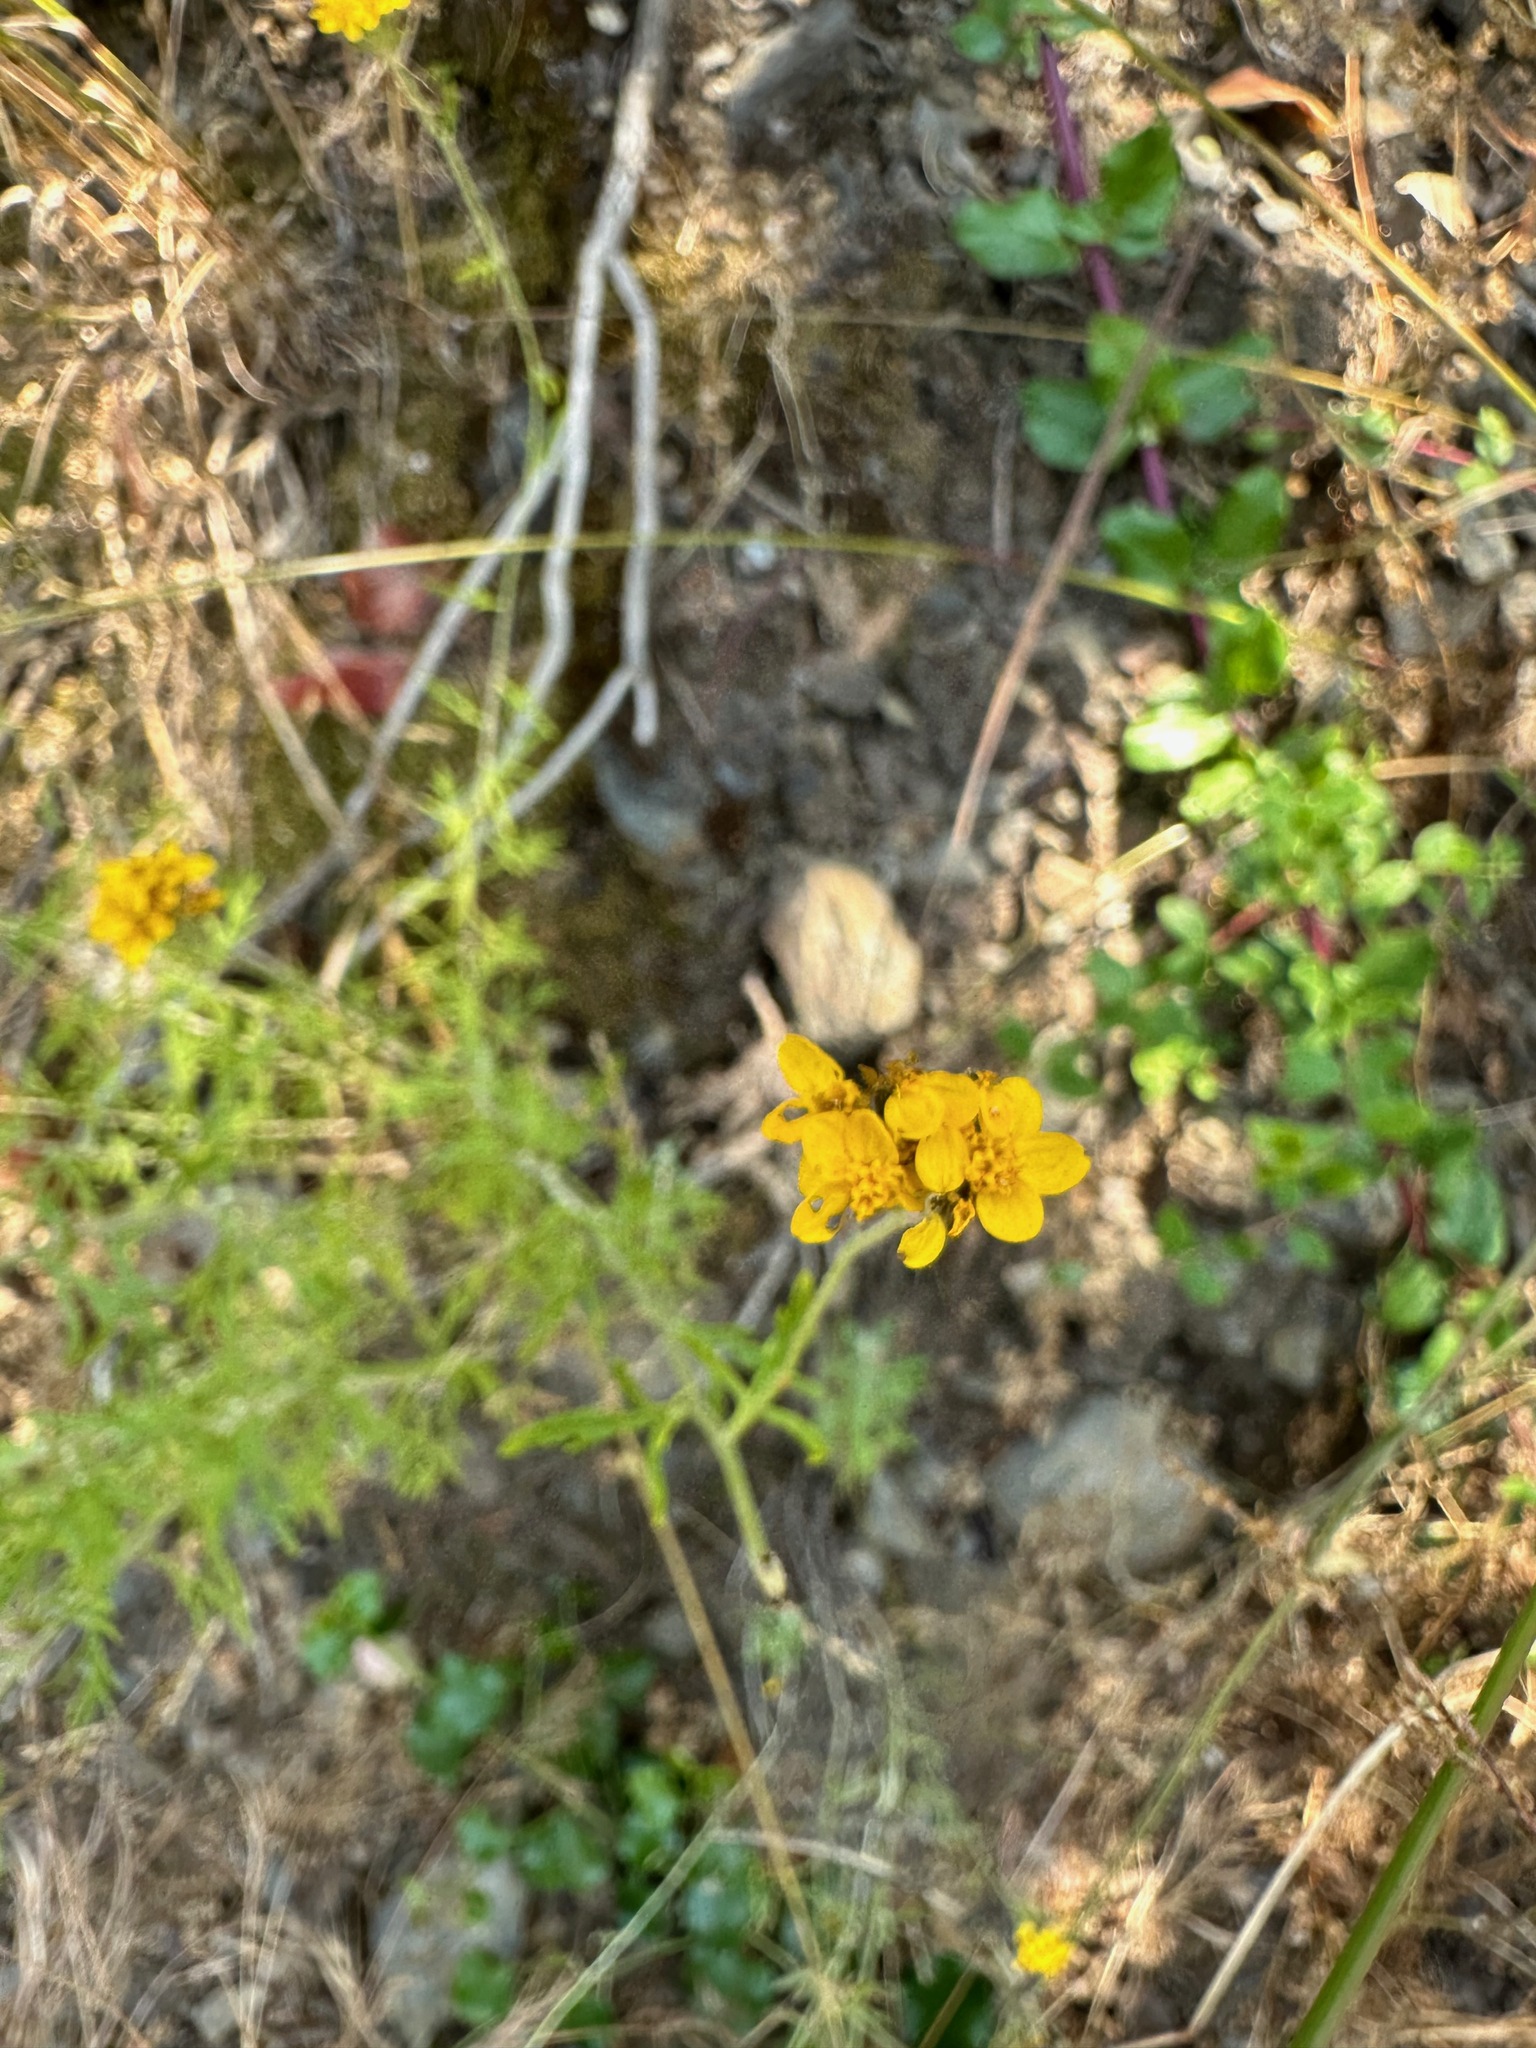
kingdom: Plantae
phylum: Tracheophyta
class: Magnoliopsida
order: Asterales
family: Asteraceae
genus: Eriophyllum
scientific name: Eriophyllum confertiflorum
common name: Golden-yarrow
